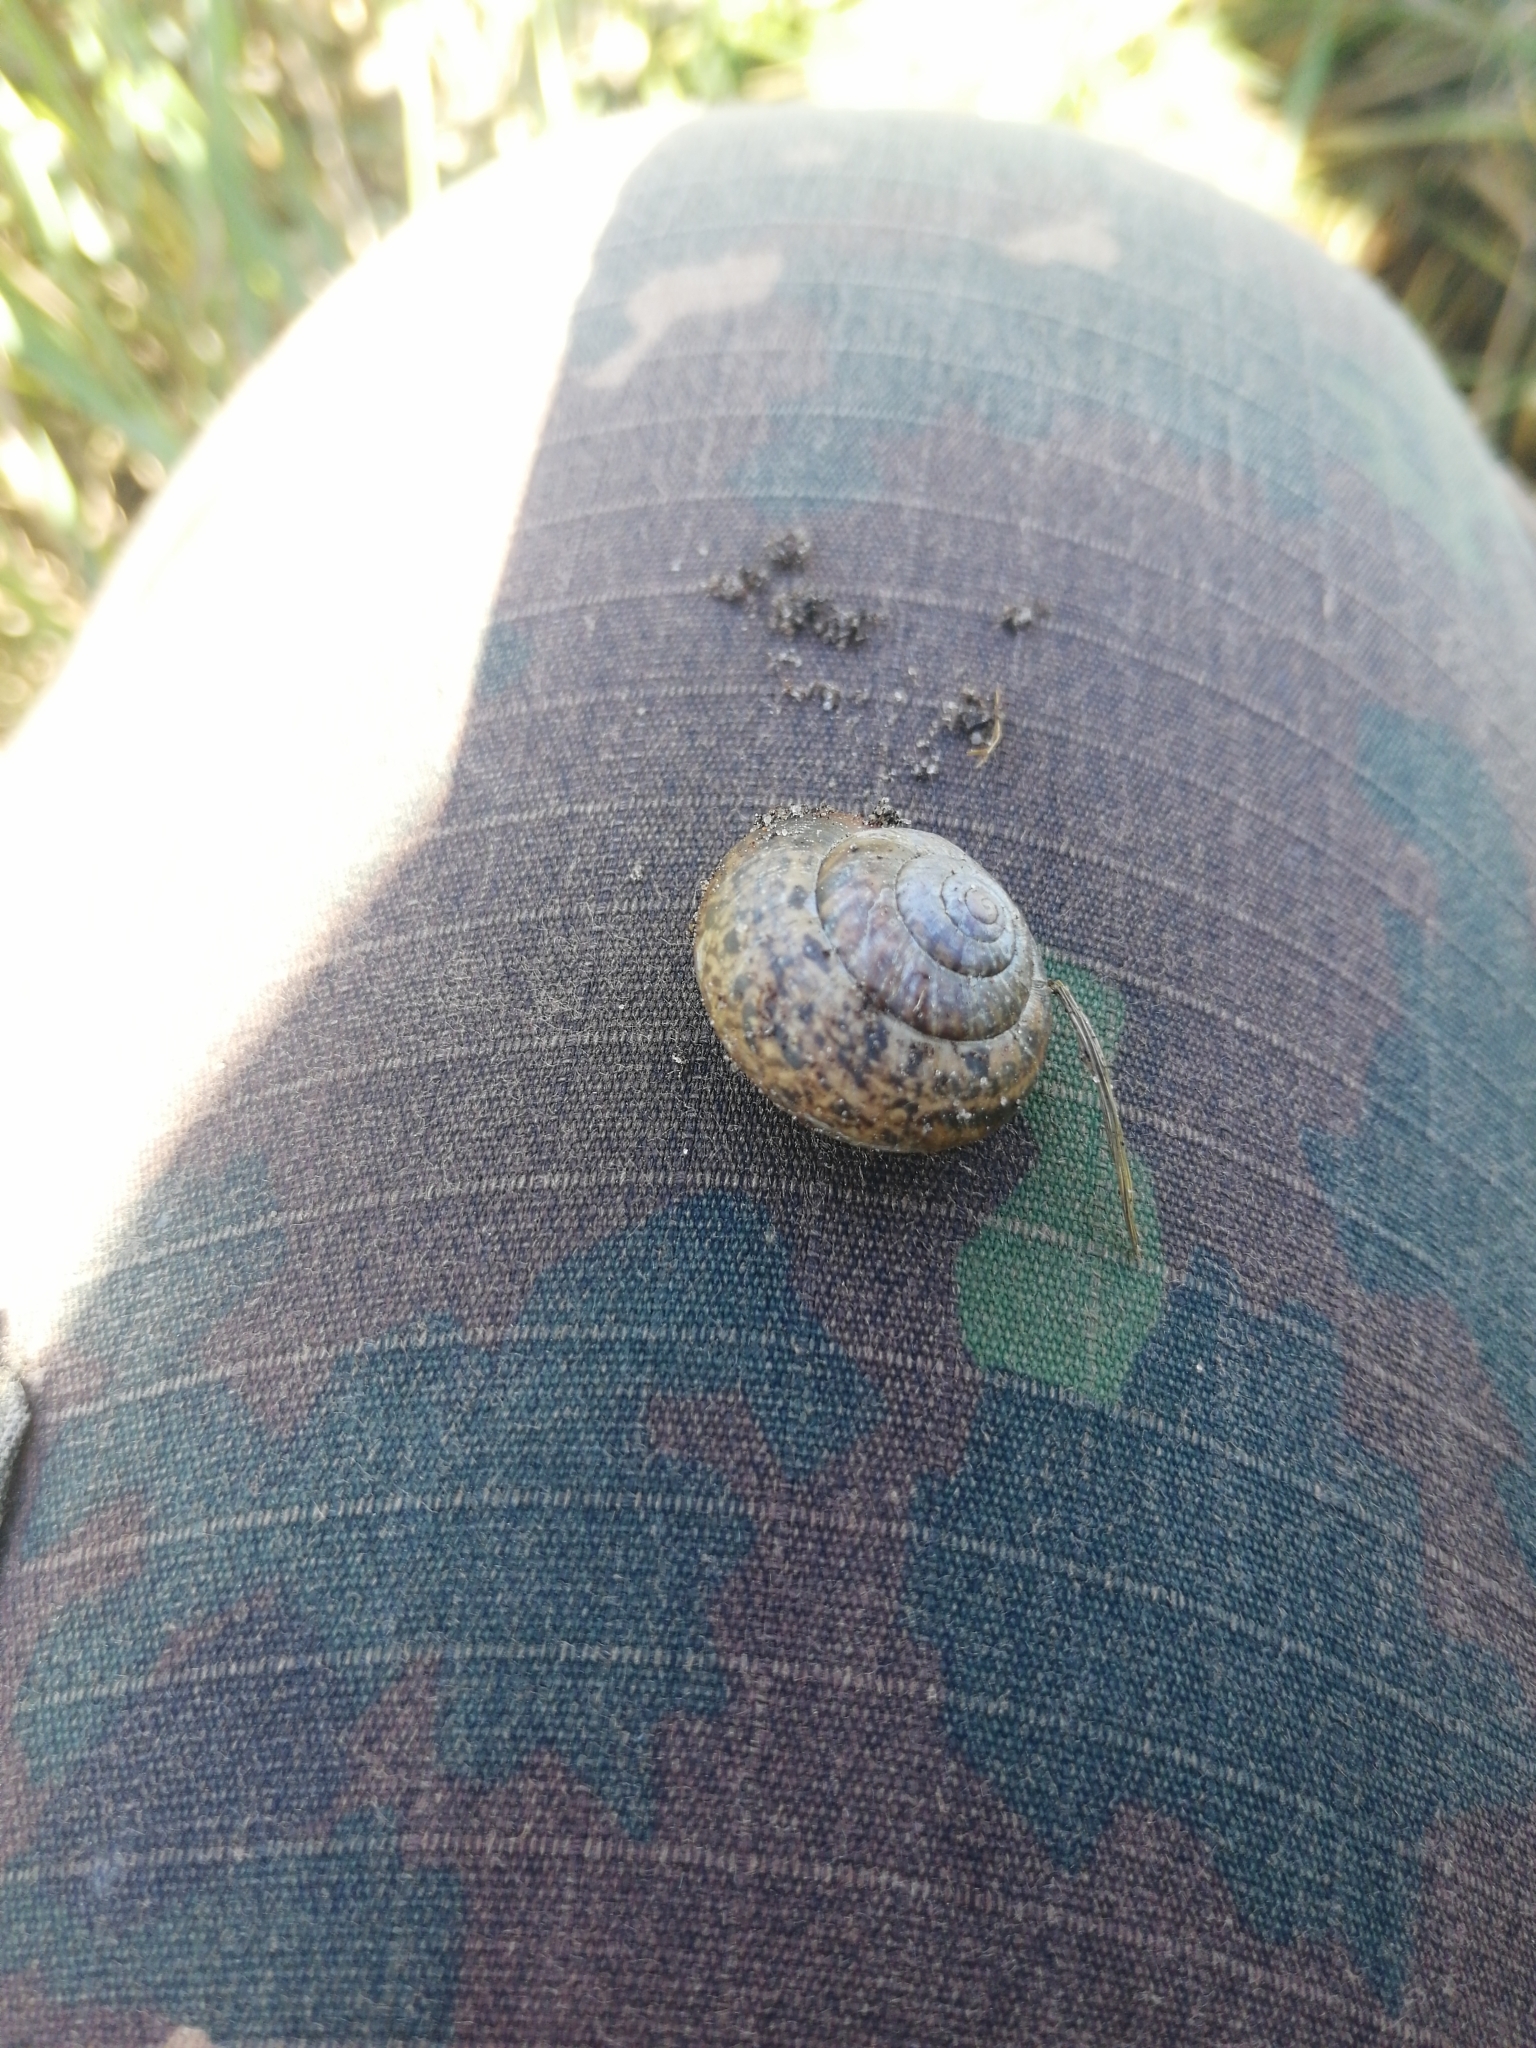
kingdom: Animalia
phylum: Mollusca
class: Gastropoda
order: Stylommatophora
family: Camaenidae
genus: Fruticicola
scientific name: Fruticicola fruticum
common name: Bush snail
